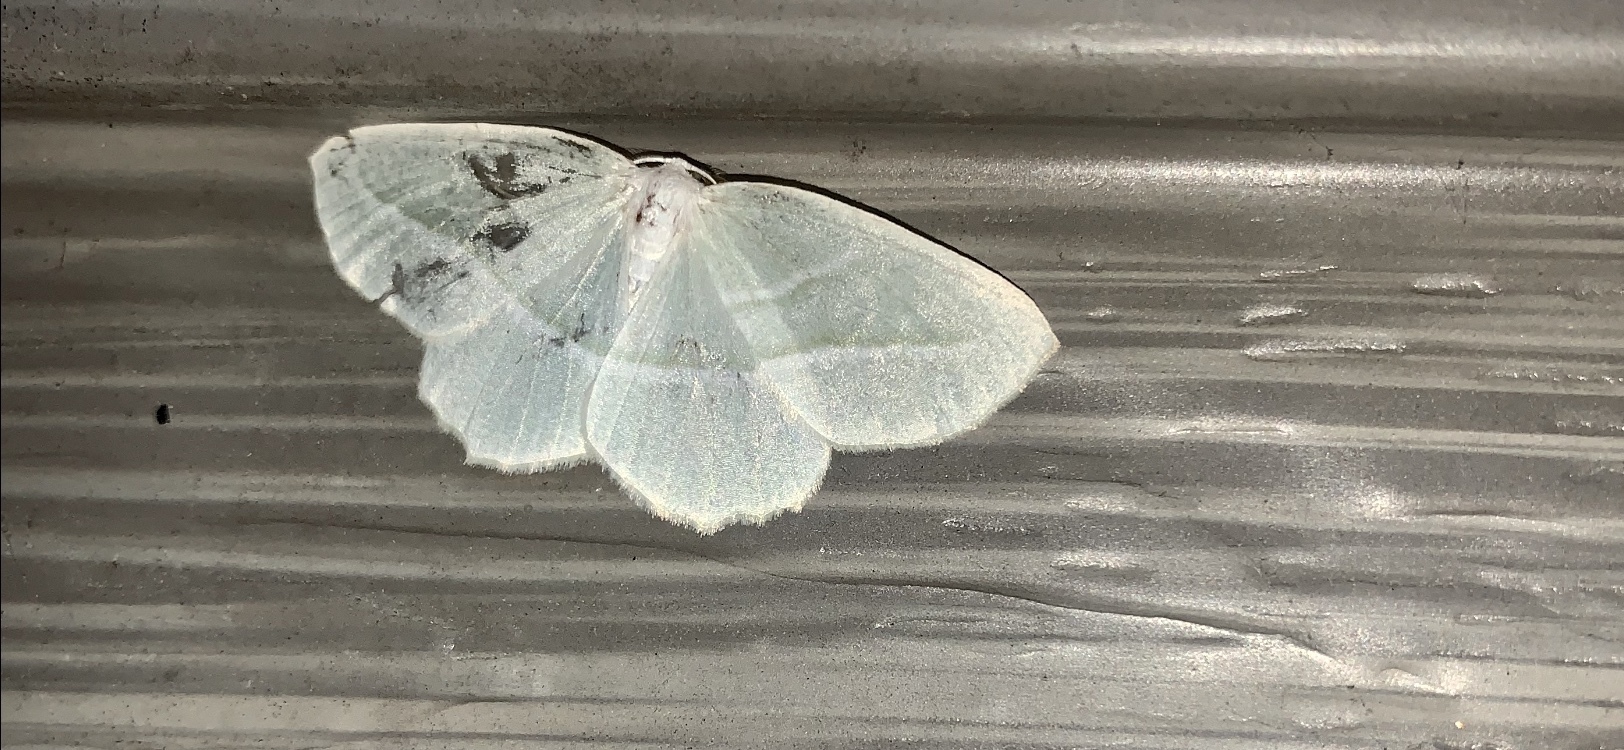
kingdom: Animalia
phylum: Arthropoda
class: Insecta
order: Lepidoptera
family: Geometridae
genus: Campaea
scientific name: Campaea perlata
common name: Fringed looper
